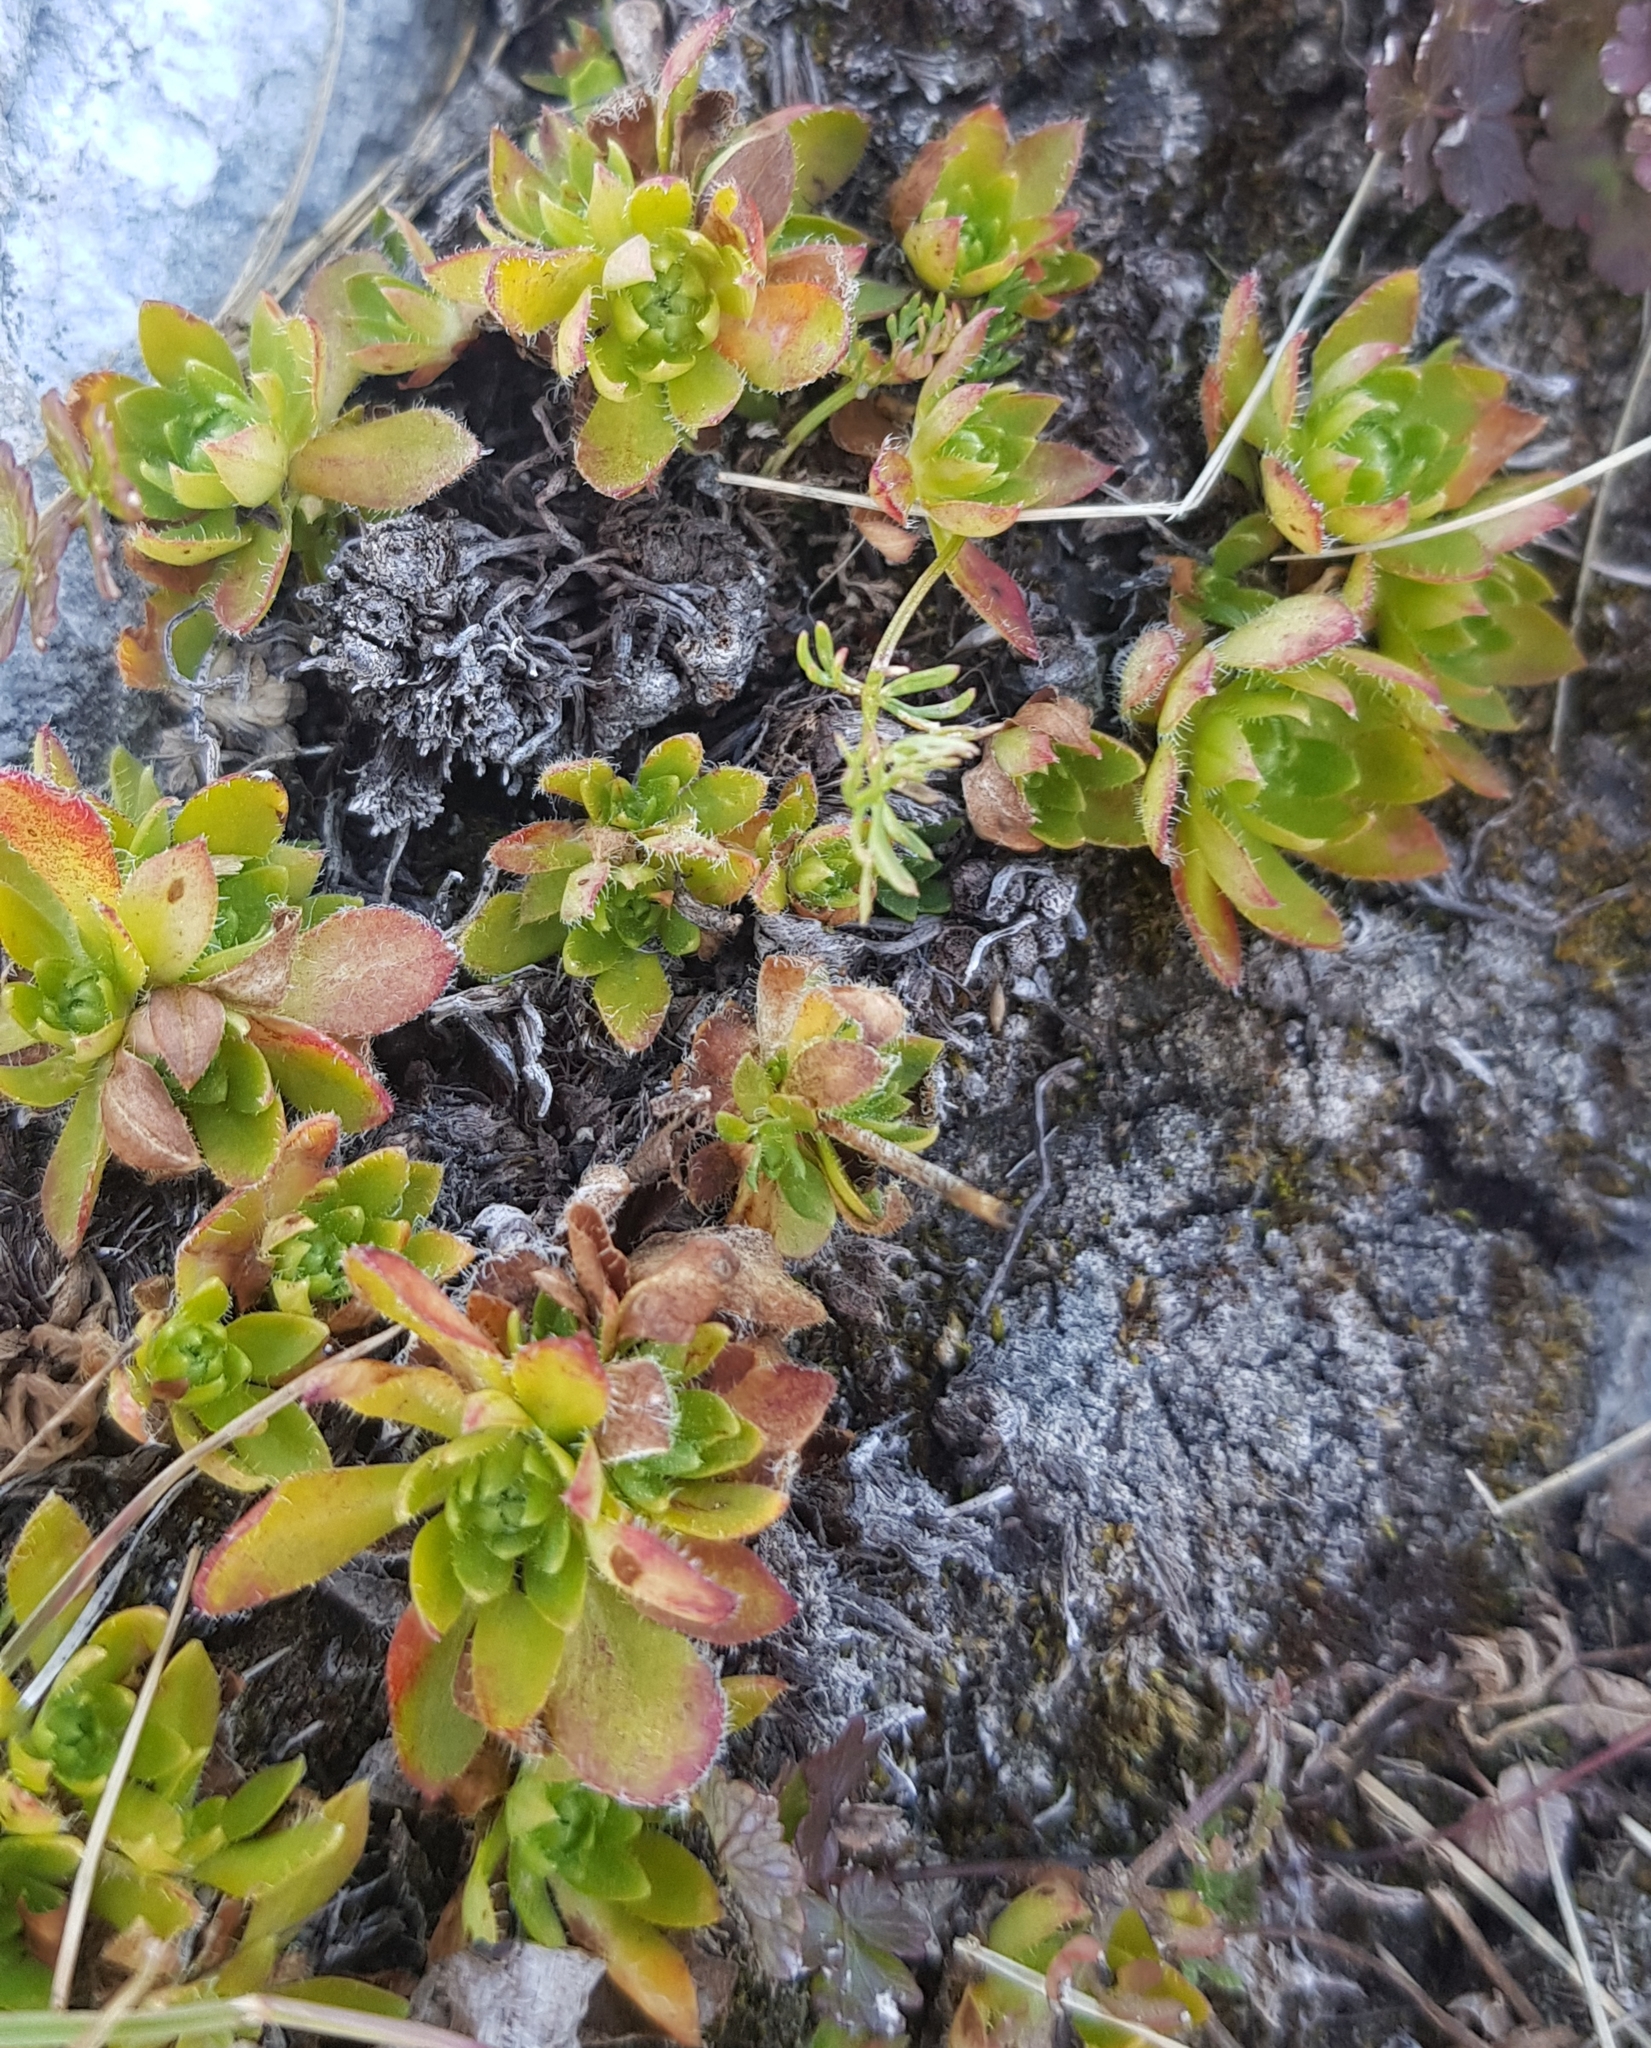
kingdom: Plantae
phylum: Tracheophyta
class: Magnoliopsida
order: Ericales
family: Primulaceae
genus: Androsace
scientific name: Androsace chamaejasme
